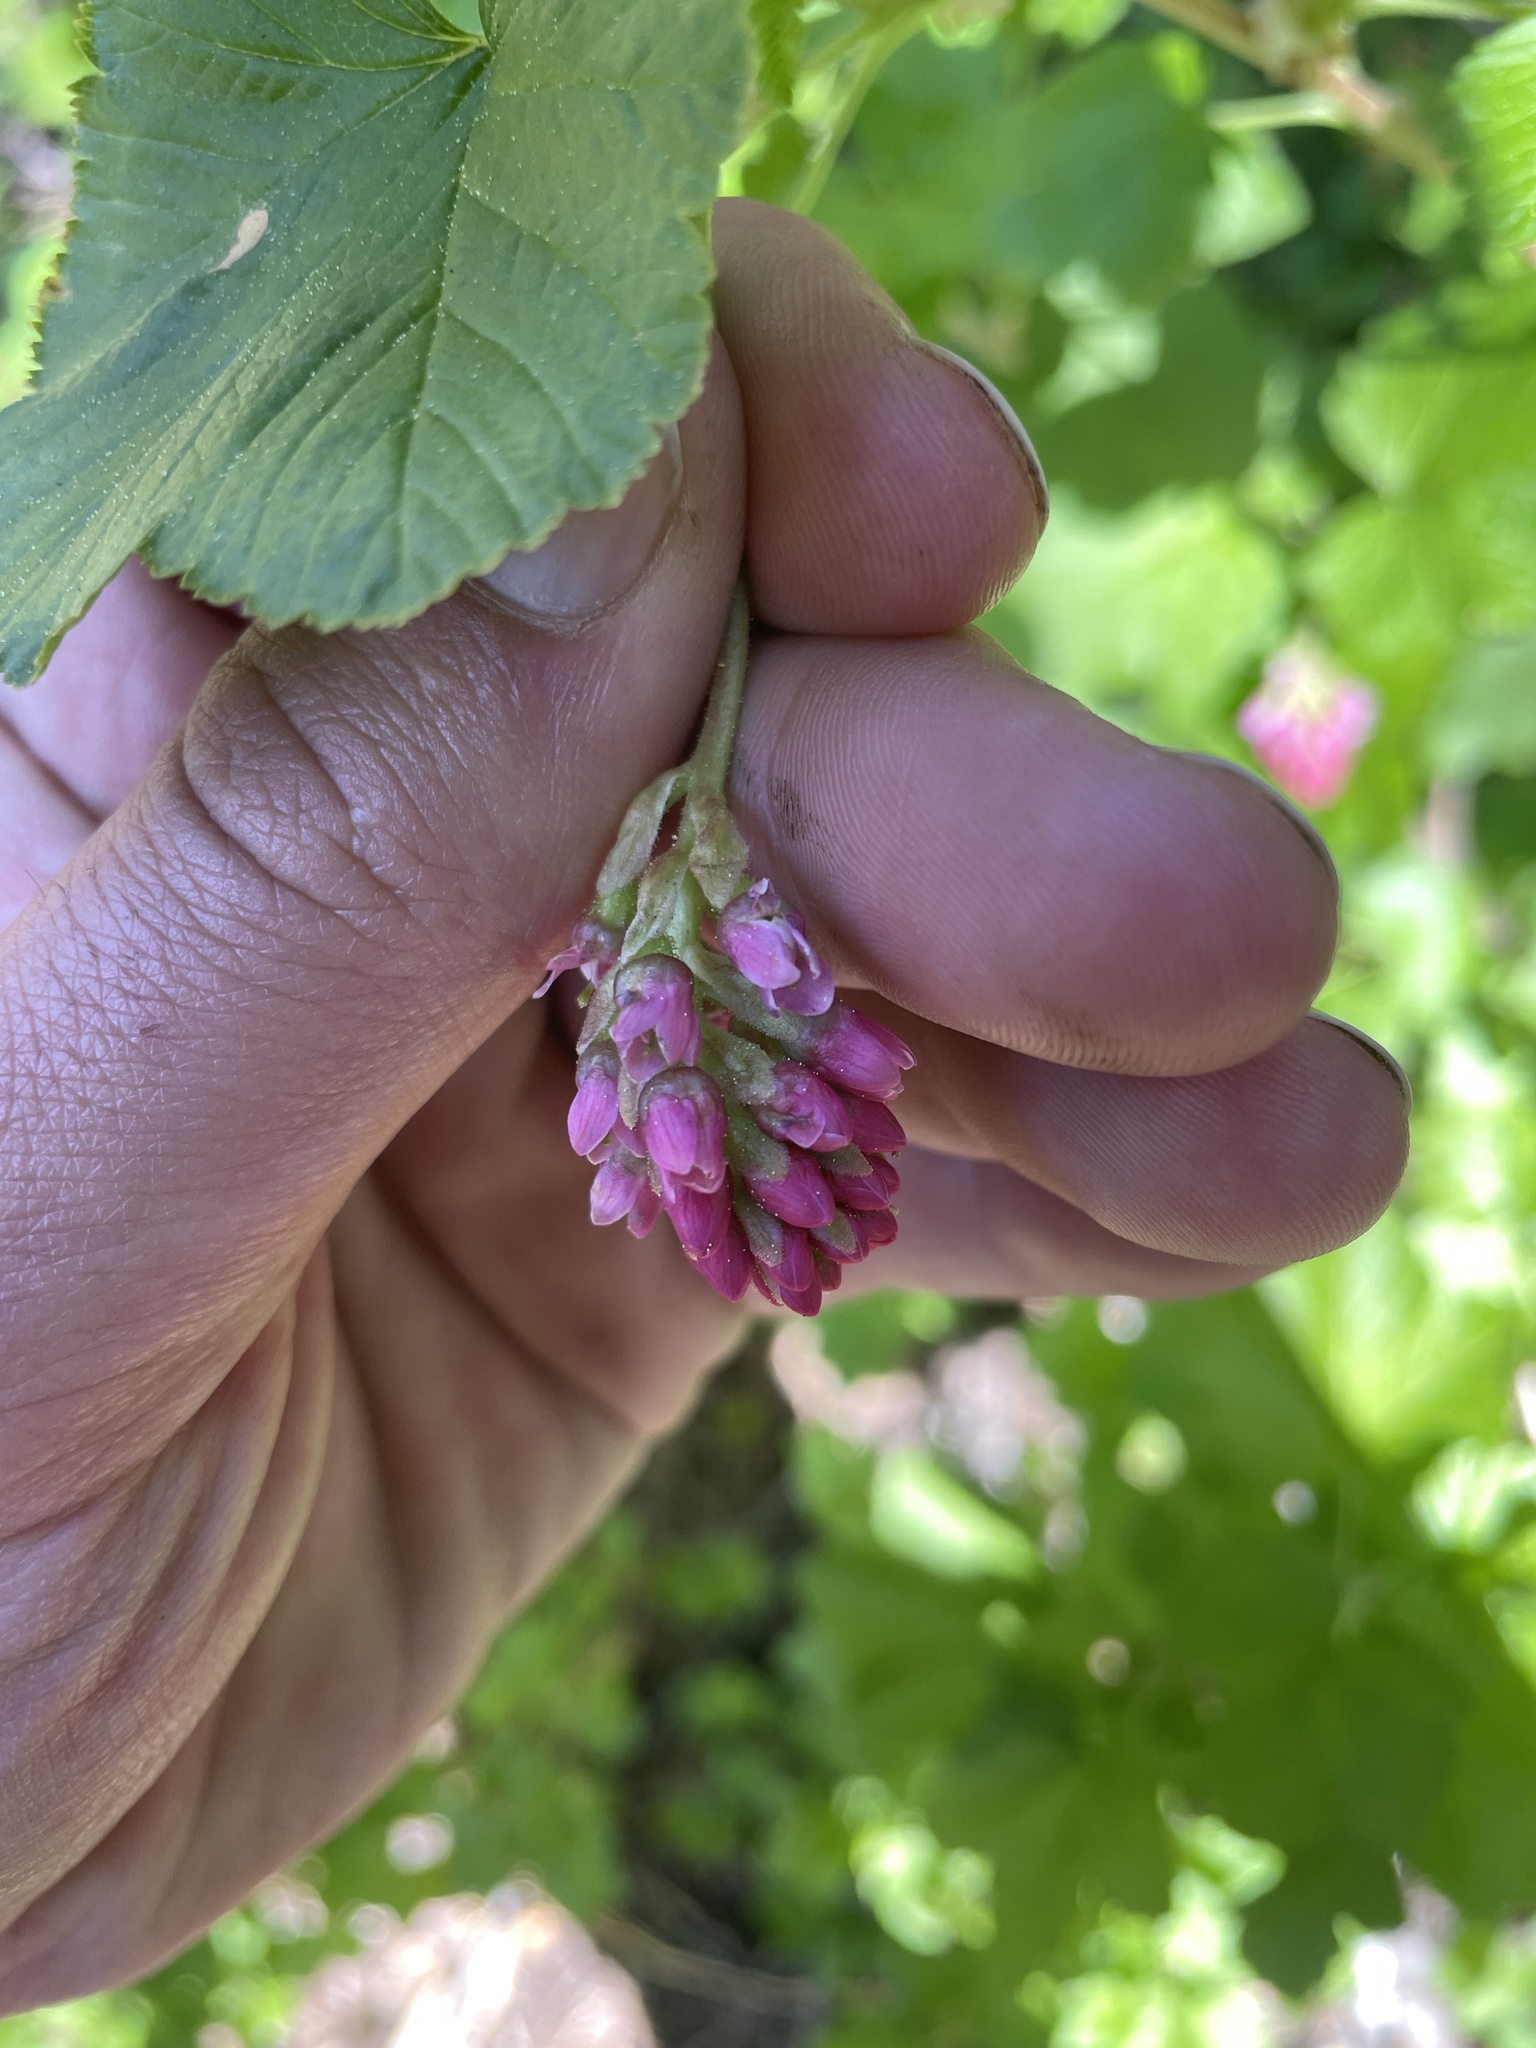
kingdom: Plantae
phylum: Tracheophyta
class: Magnoliopsida
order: Saxifragales
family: Grossulariaceae
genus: Ribes
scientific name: Ribes nevadense
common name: Mountain pink currant
